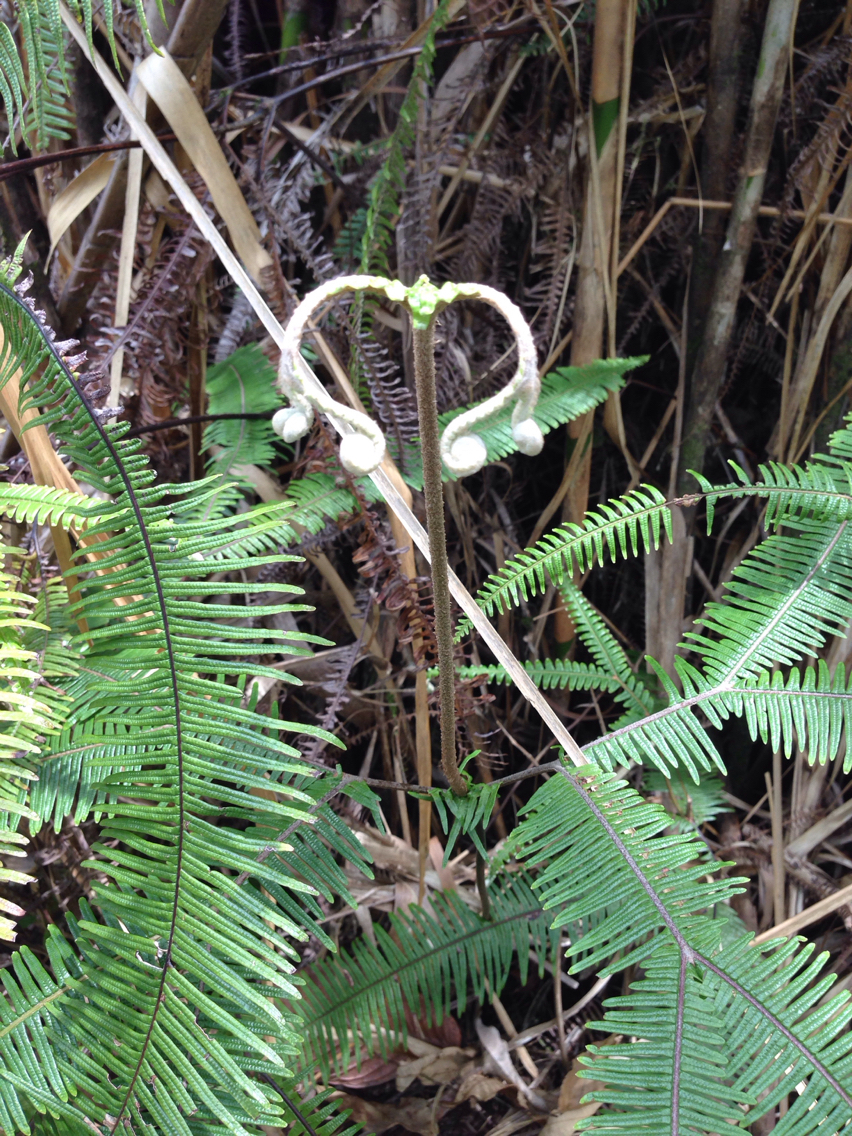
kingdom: Plantae
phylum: Tracheophyta
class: Polypodiopsida
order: Gleicheniales
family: Gleicheniaceae
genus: Sticherus
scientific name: Sticherus bifidus
